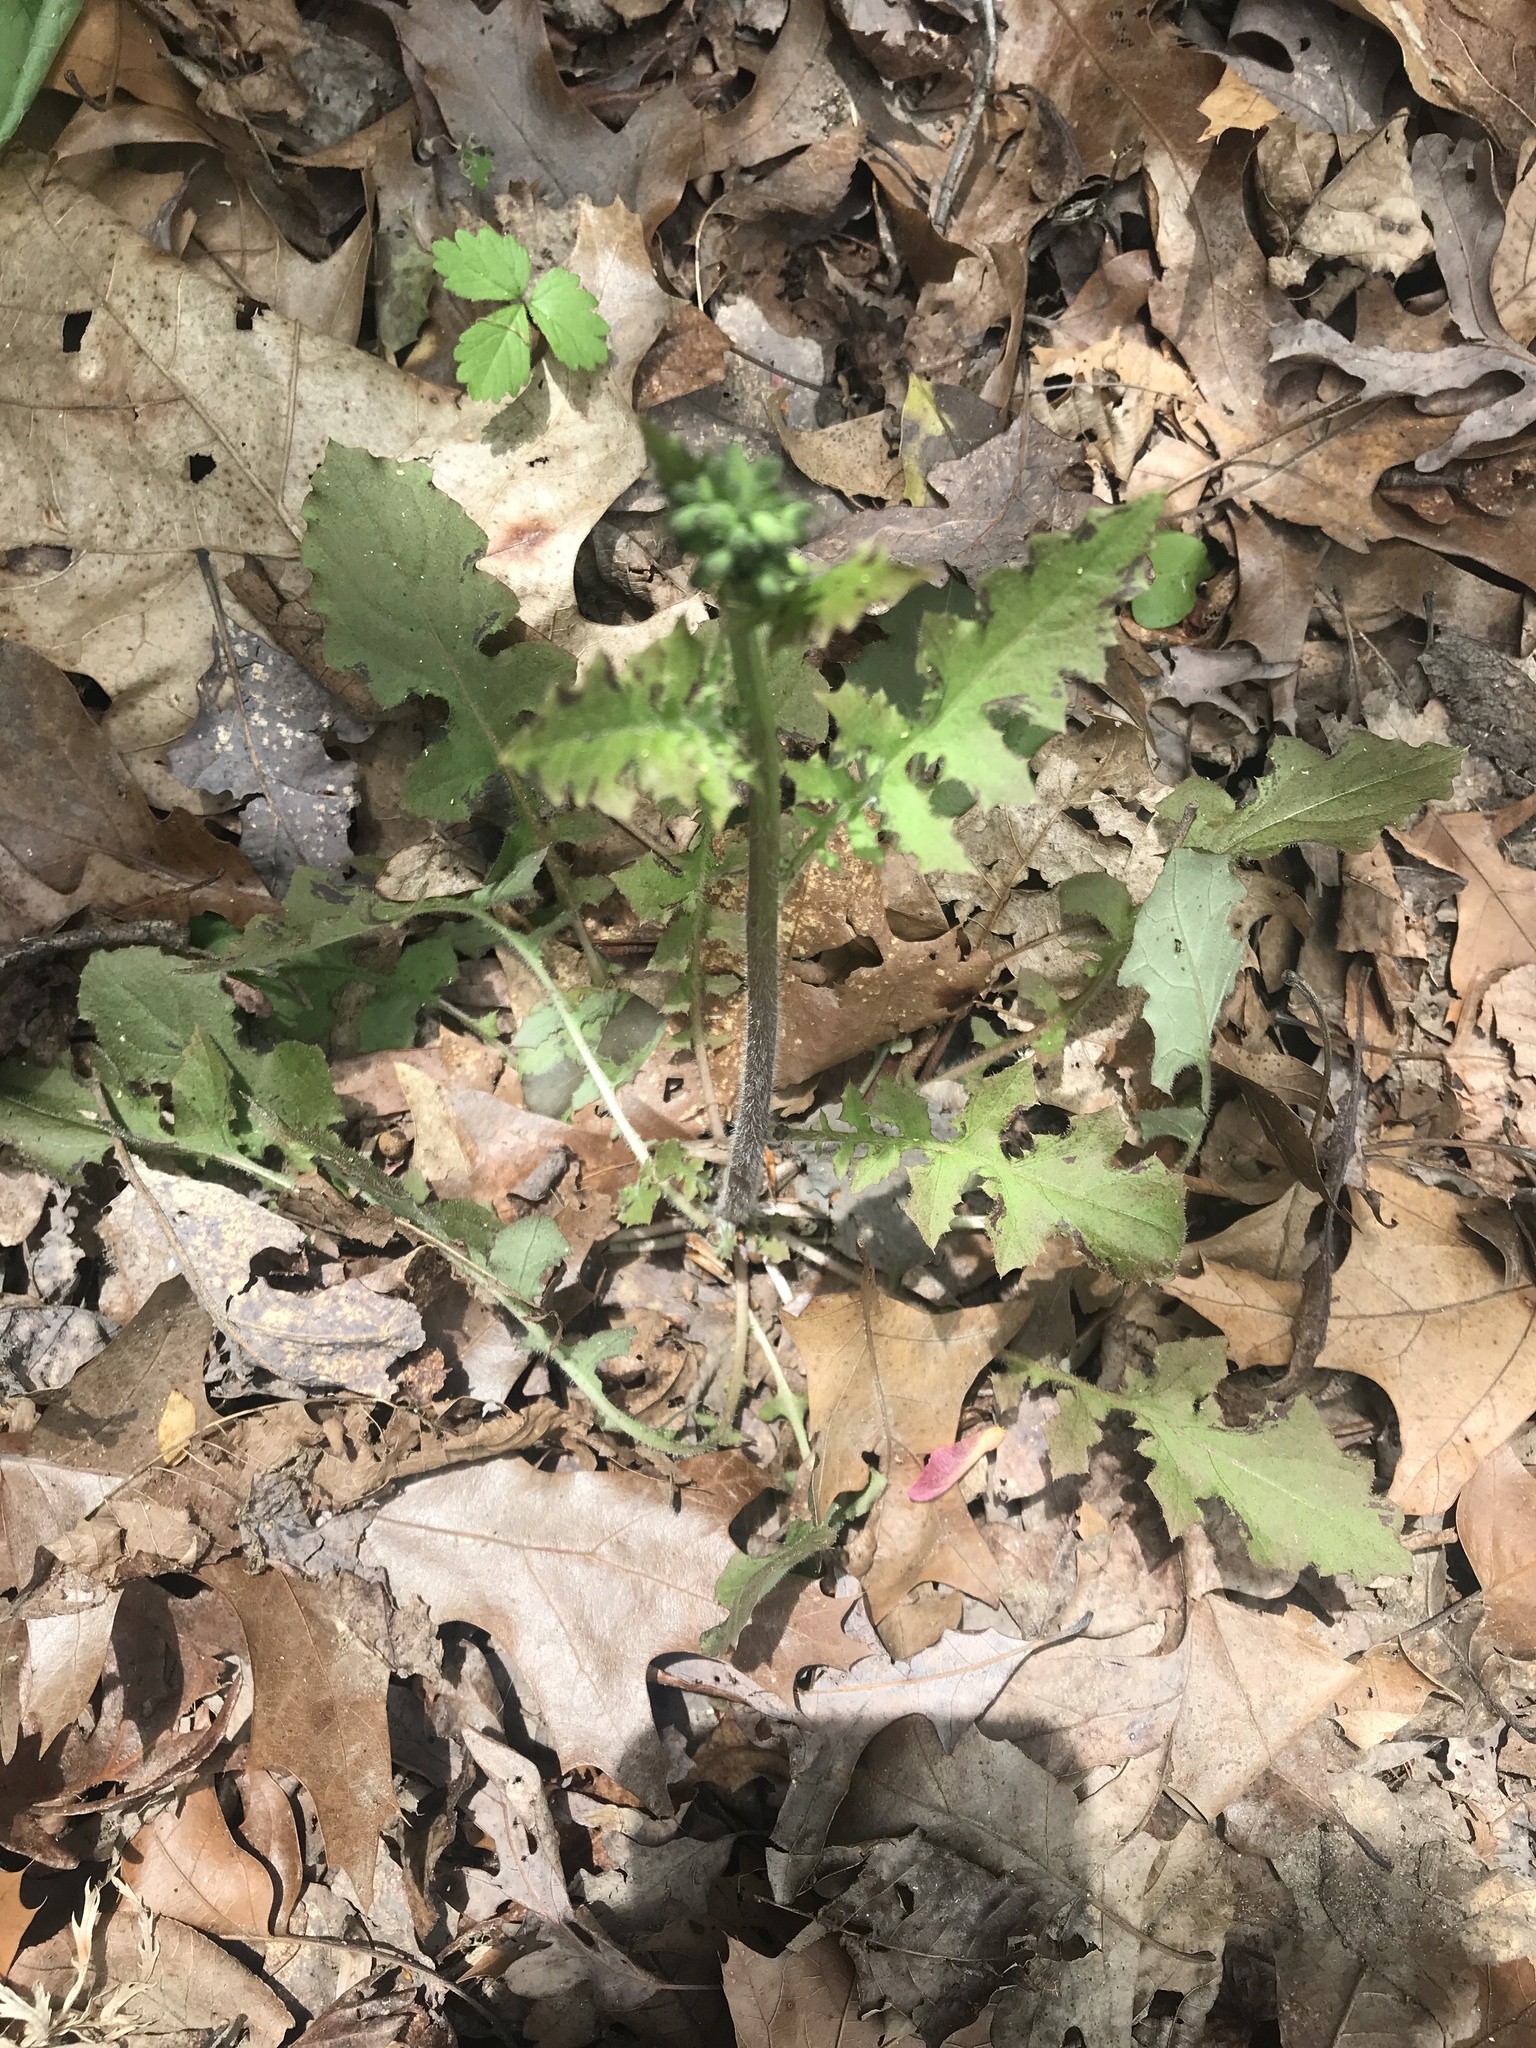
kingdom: Plantae
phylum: Tracheophyta
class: Magnoliopsida
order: Asterales
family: Asteraceae
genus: Youngia
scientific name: Youngia japonica
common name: Oriental false hawksbeard
